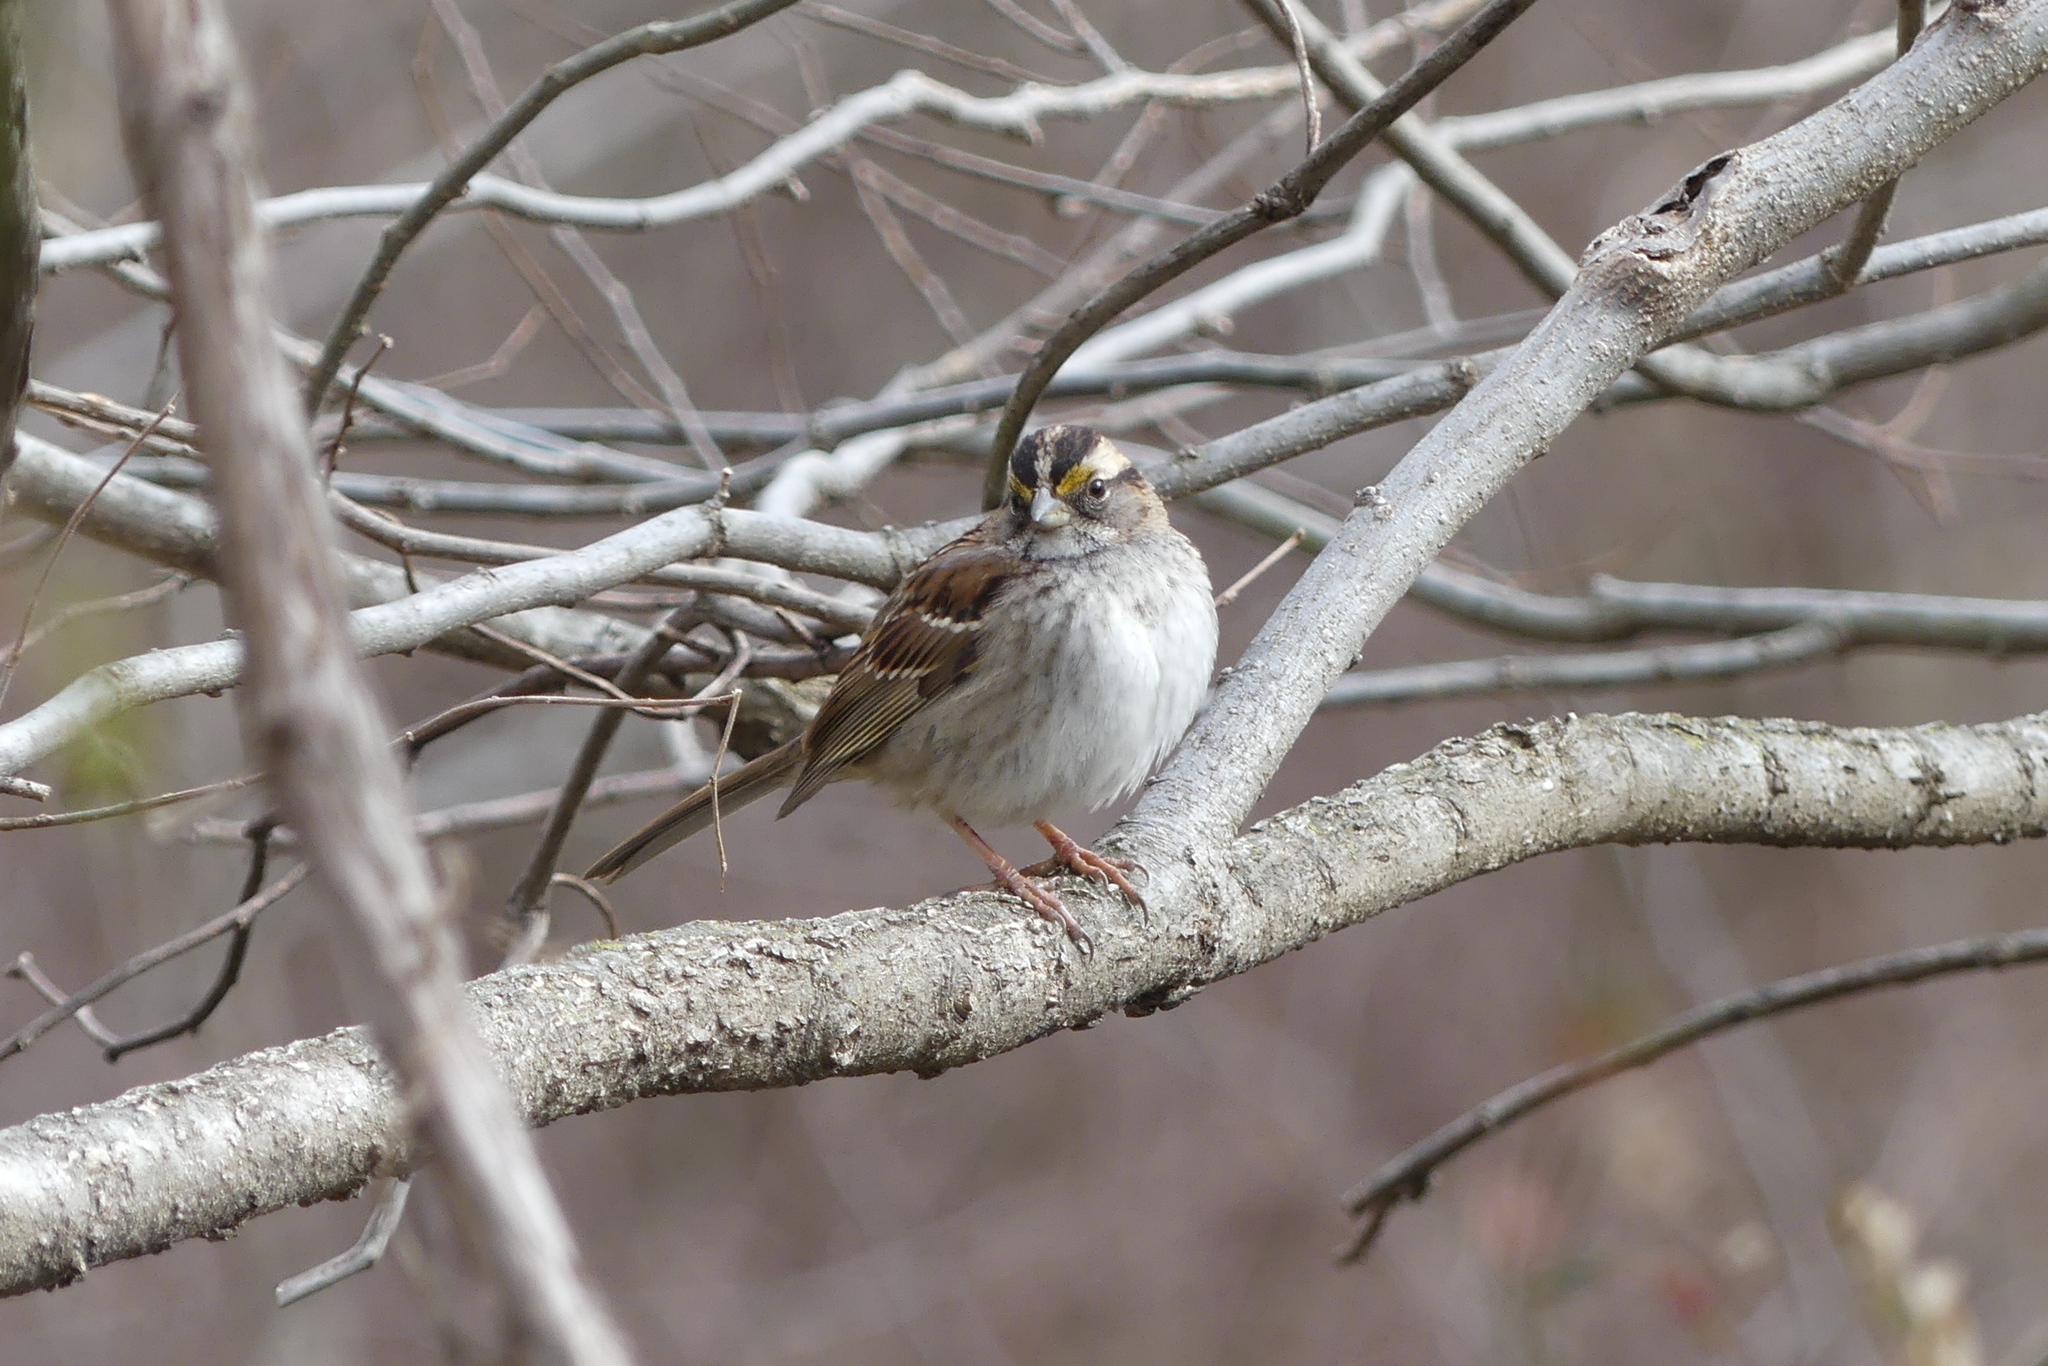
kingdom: Animalia
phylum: Chordata
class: Aves
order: Passeriformes
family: Passerellidae
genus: Zonotrichia
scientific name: Zonotrichia albicollis
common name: White-throated sparrow
